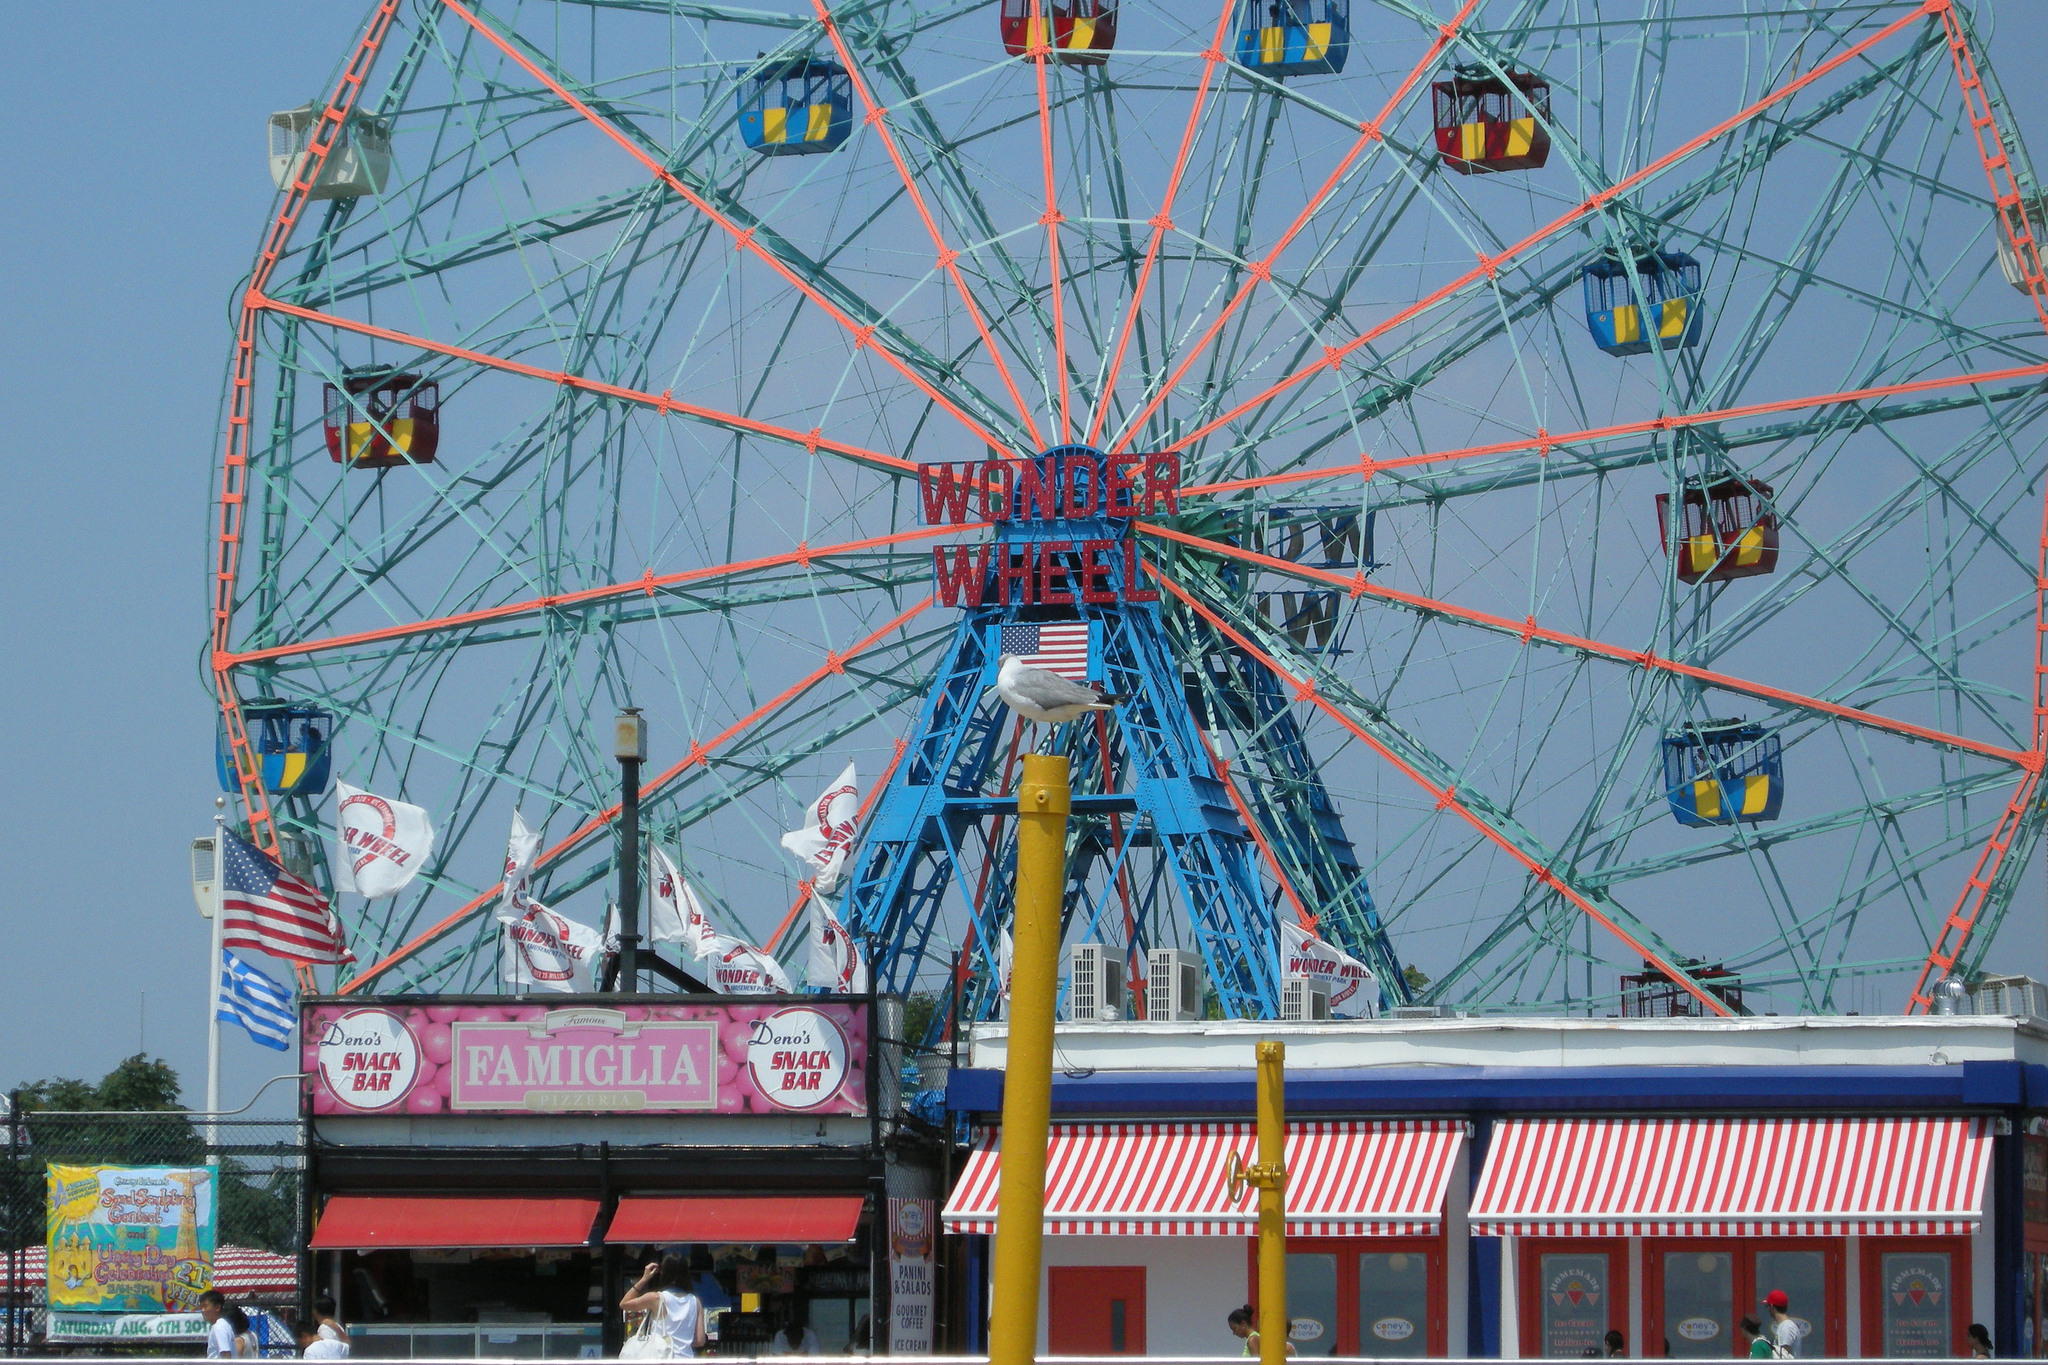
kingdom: Animalia
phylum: Chordata
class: Aves
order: Charadriiformes
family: Laridae
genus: Chroicocephalus
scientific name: Chroicocephalus cirrocephalus
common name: Grey-headed gull
